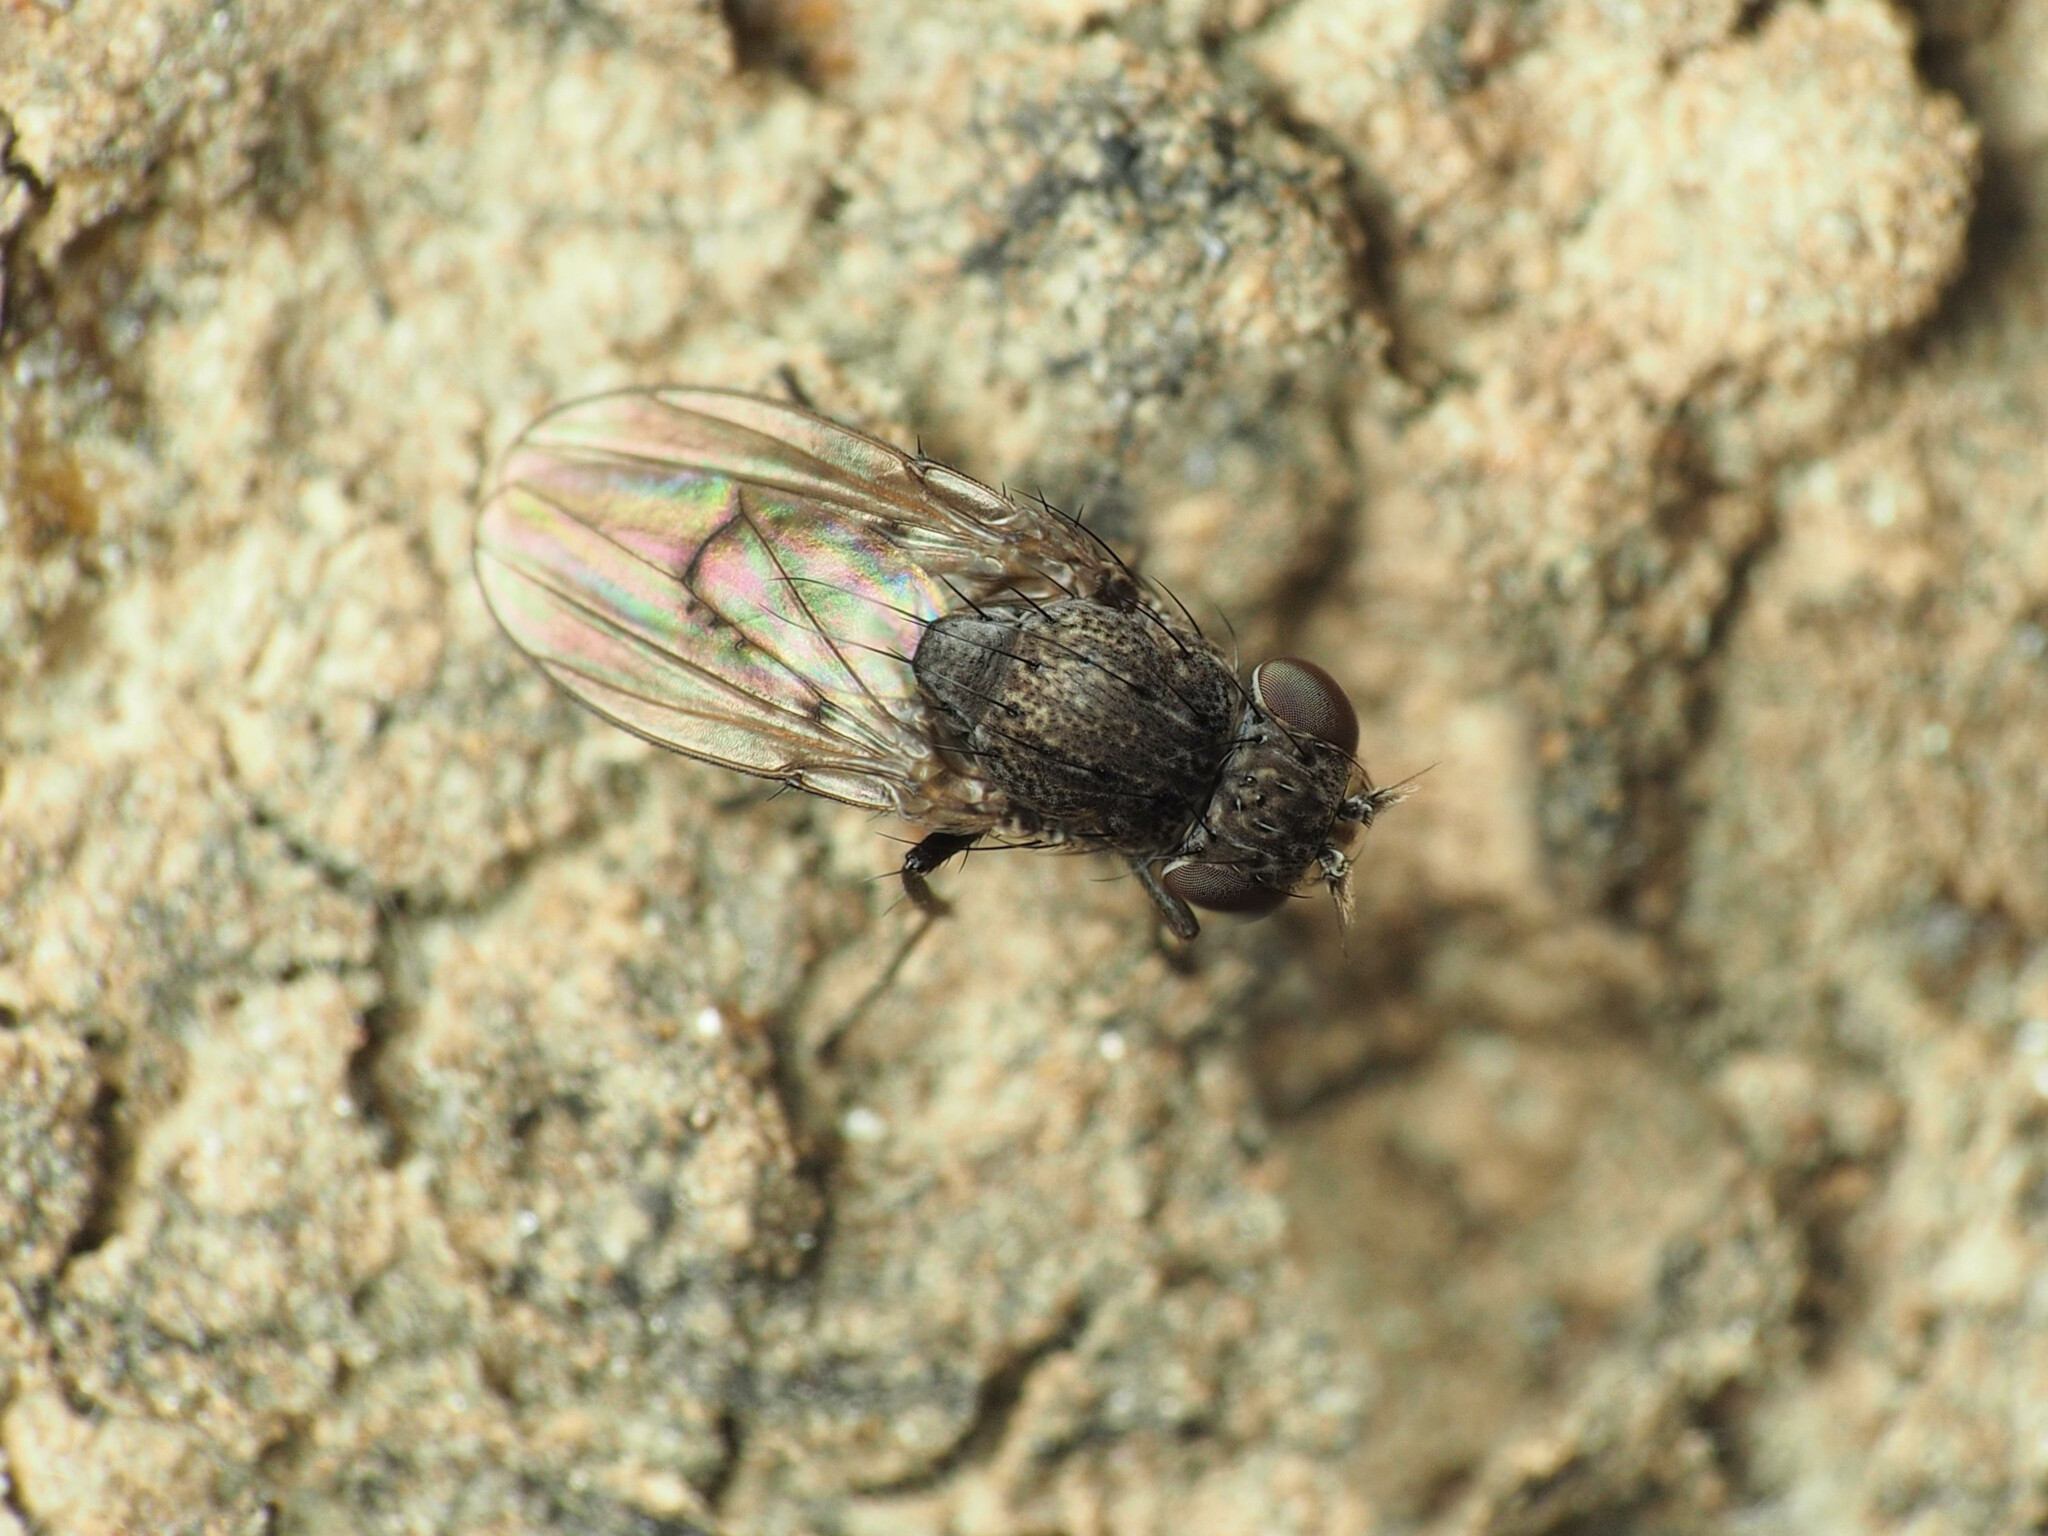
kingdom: Animalia
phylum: Arthropoda
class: Insecta
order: Diptera
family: Ephydridae
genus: Paralimna
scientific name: Paralimna punctipennis
